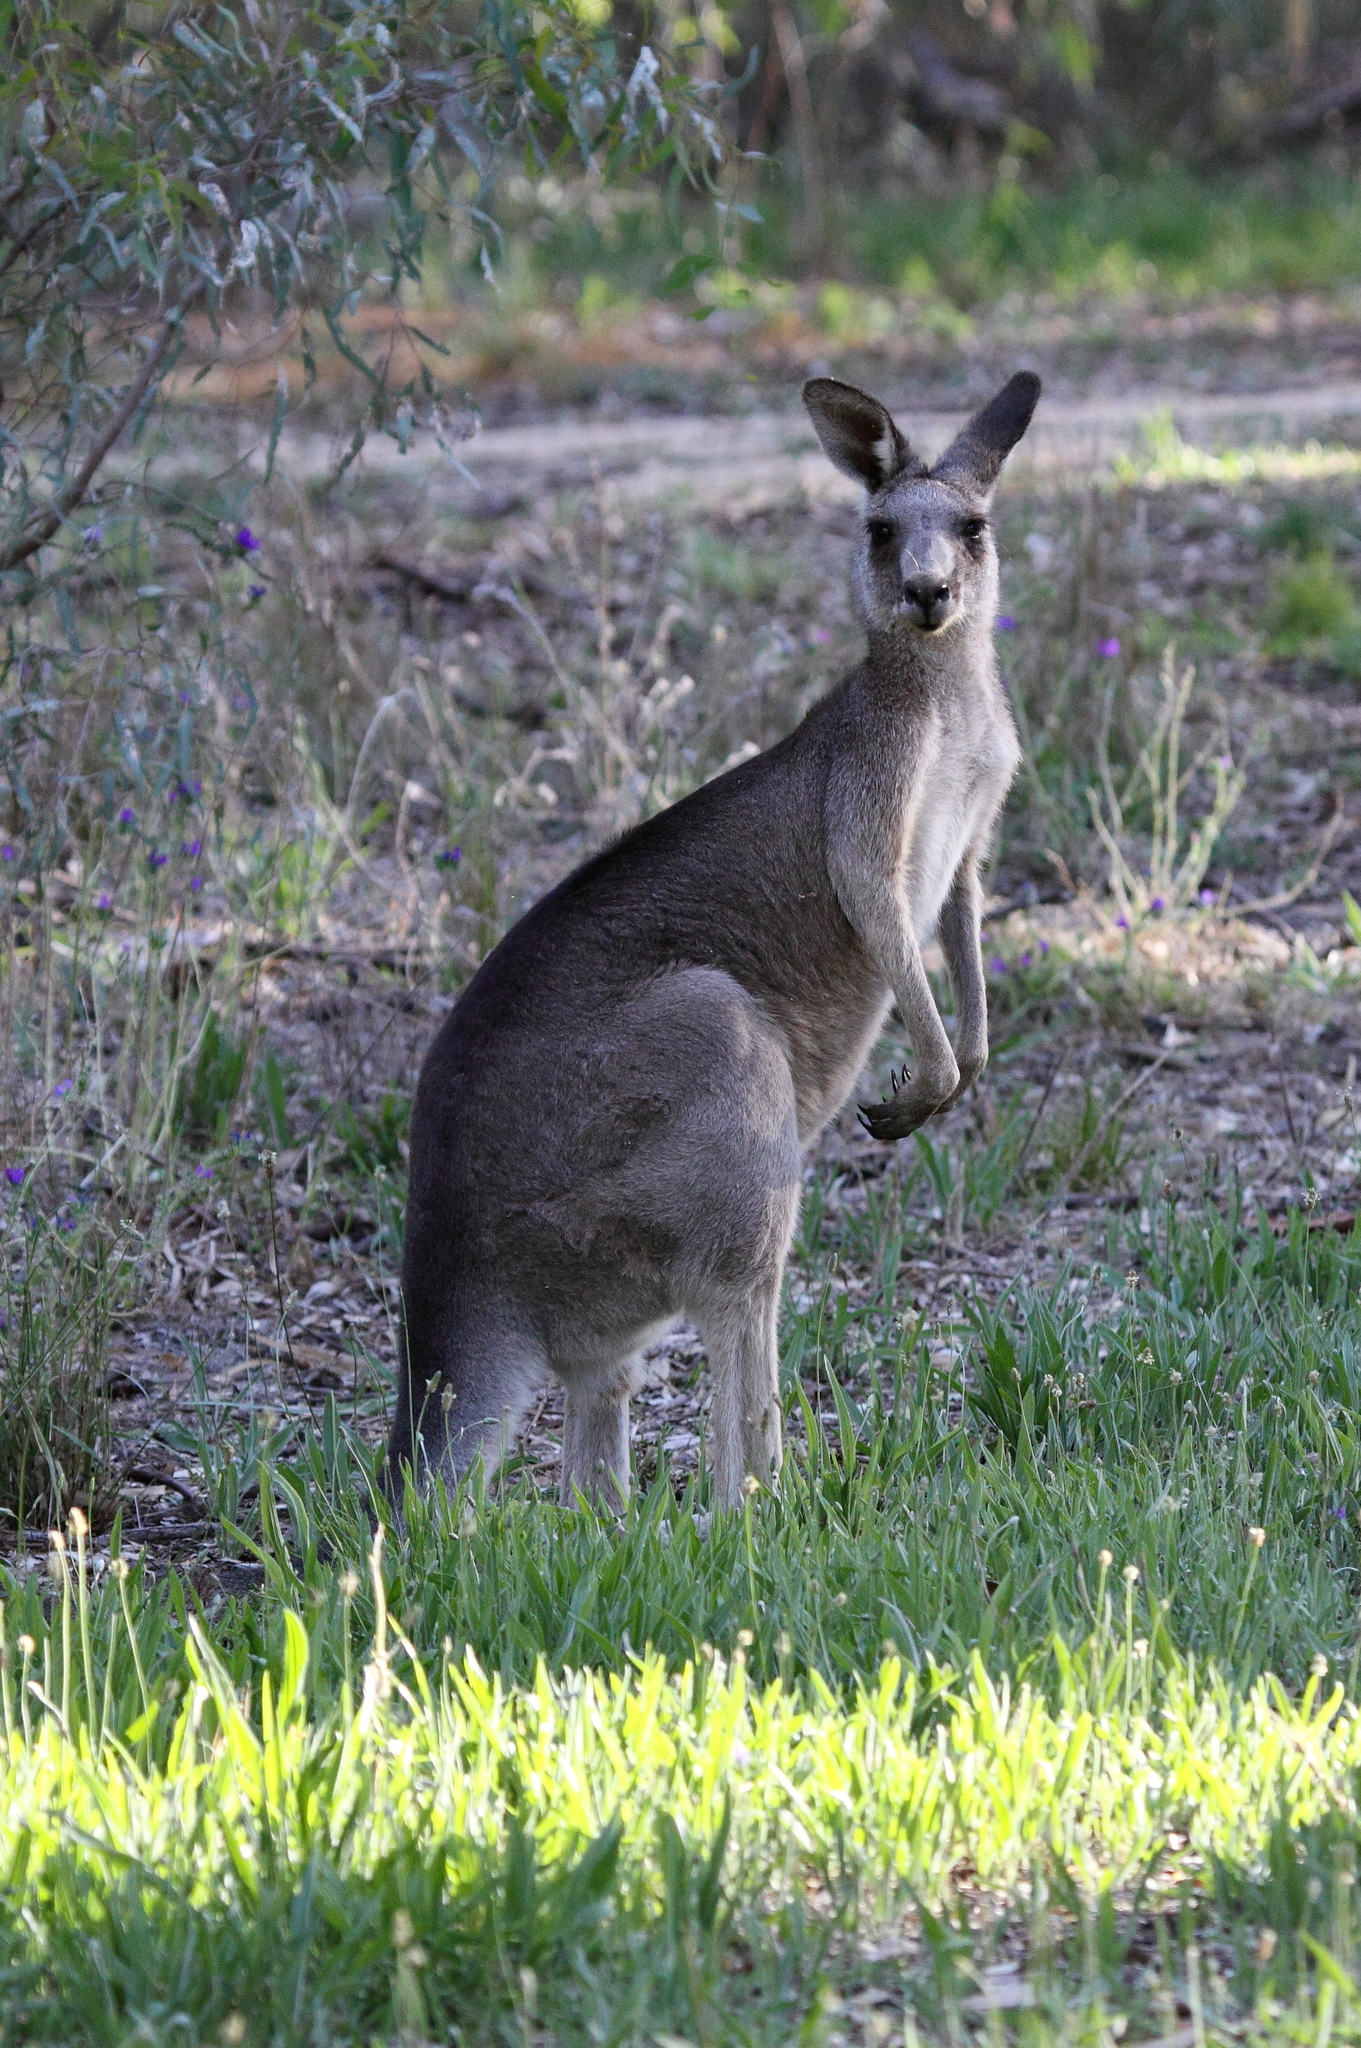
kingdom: Animalia
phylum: Chordata
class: Mammalia
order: Diprotodontia
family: Macropodidae
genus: Macropus
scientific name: Macropus giganteus
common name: Eastern grey kangaroo
